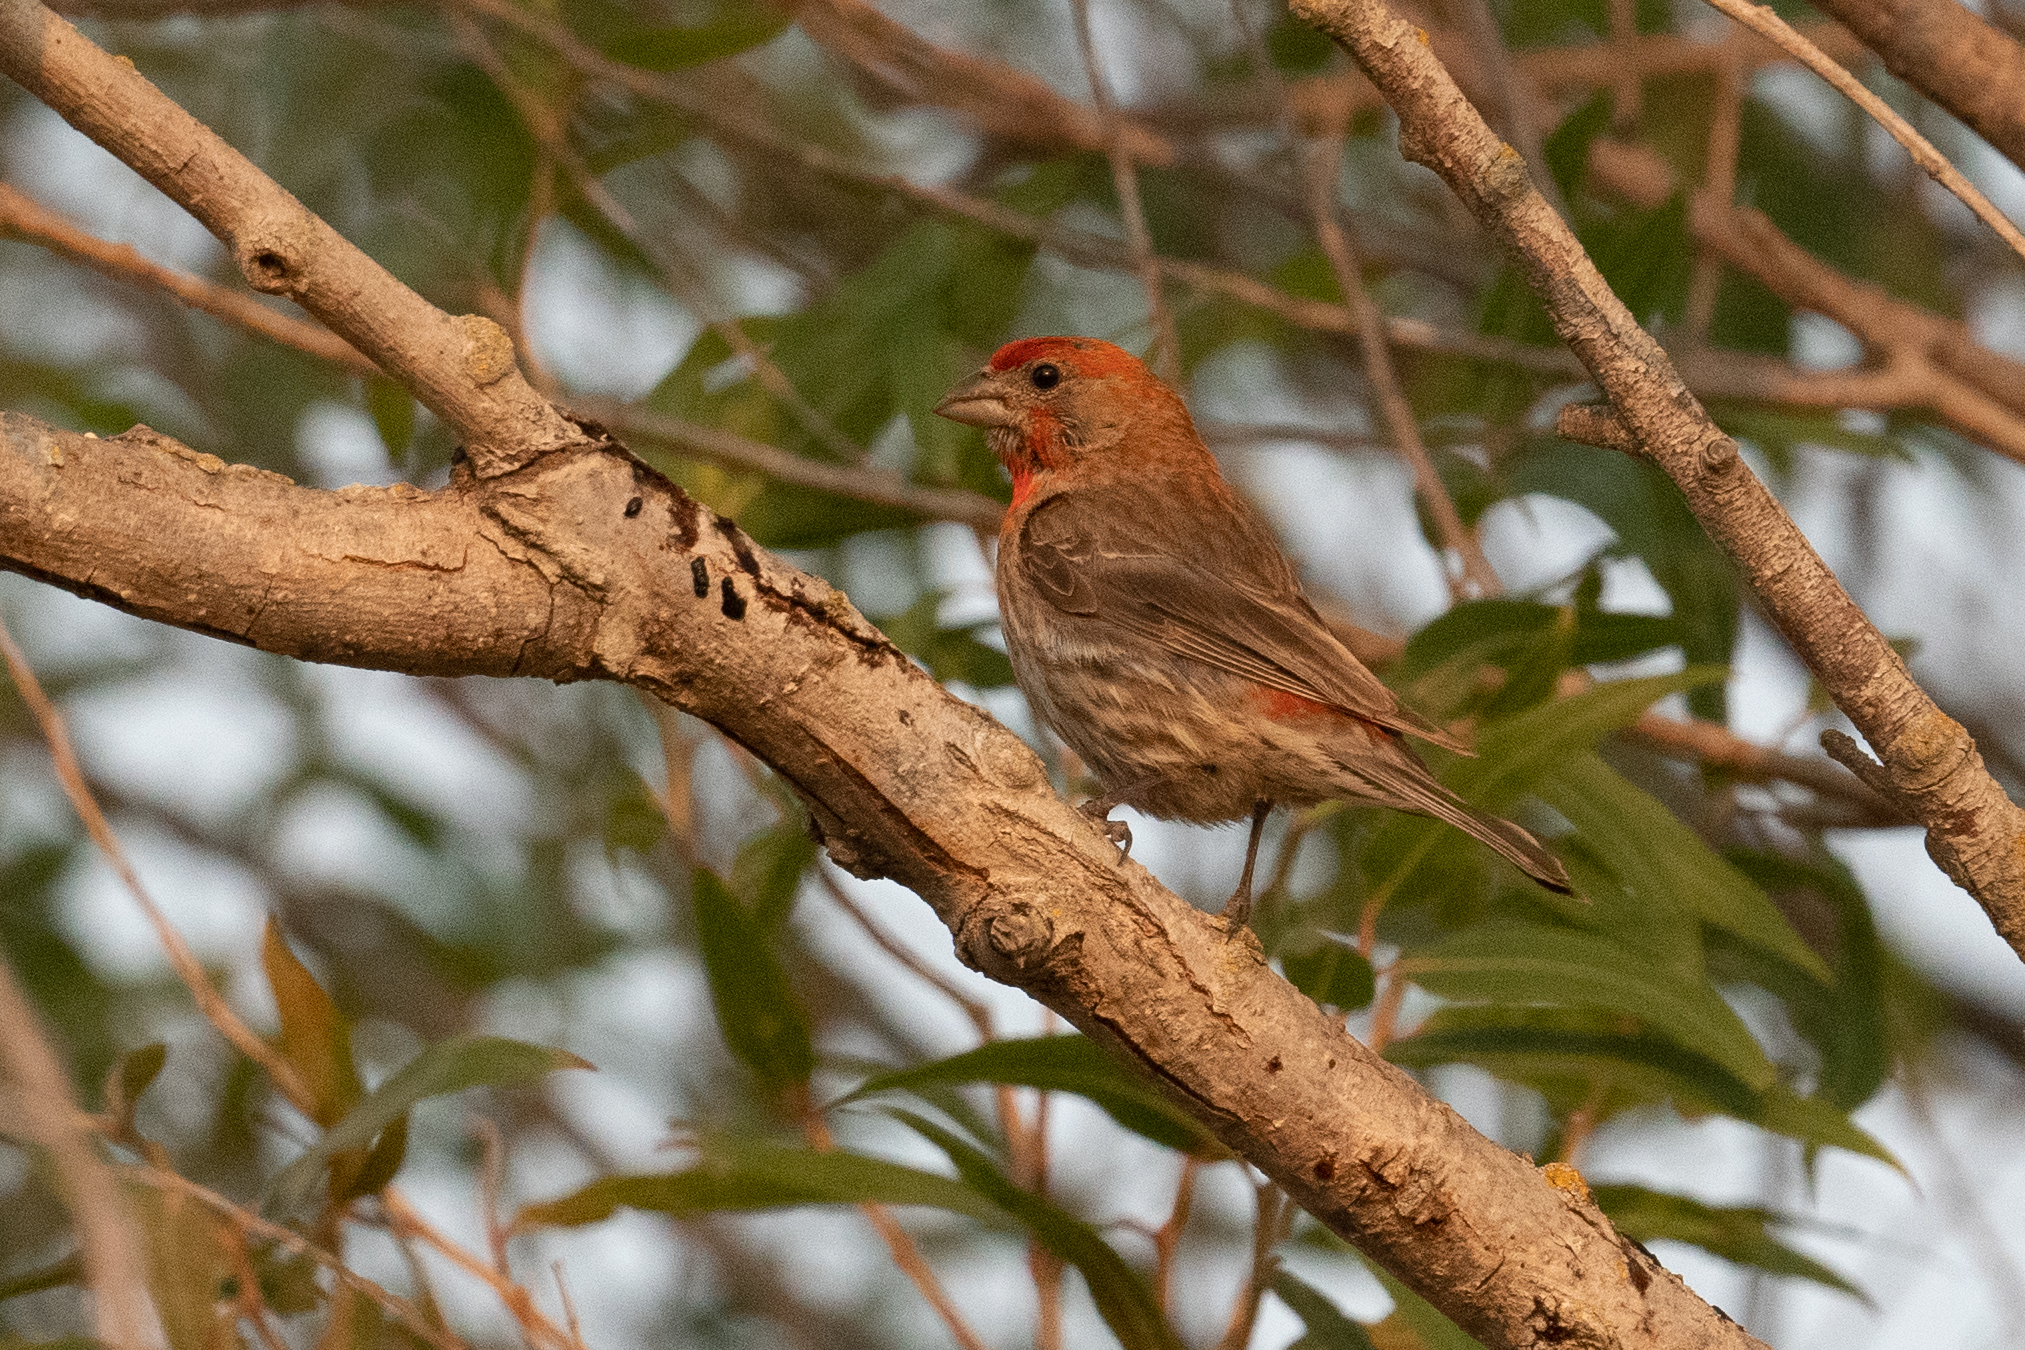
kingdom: Animalia
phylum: Chordata
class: Aves
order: Passeriformes
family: Fringillidae
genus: Haemorhous
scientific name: Haemorhous mexicanus
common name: House finch
